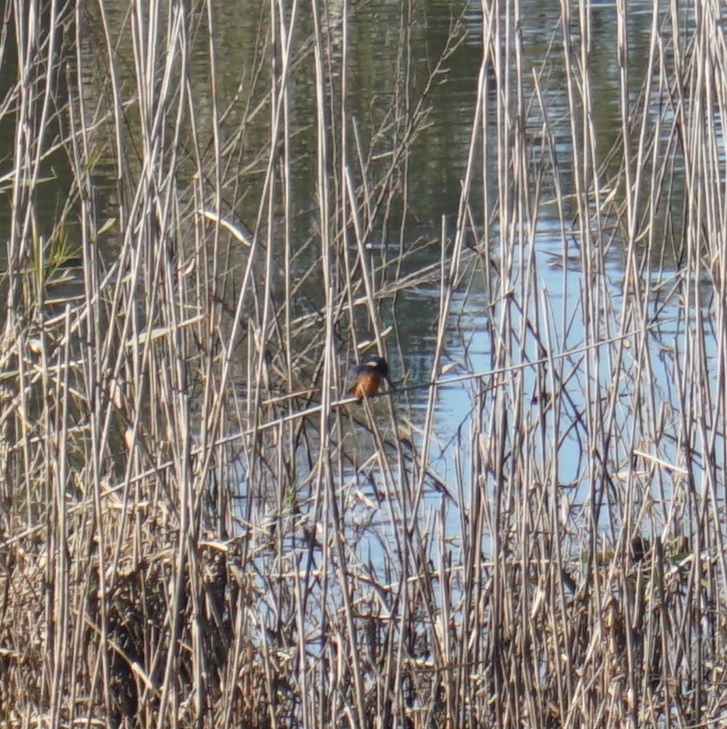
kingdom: Animalia
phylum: Chordata
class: Aves
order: Coraciiformes
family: Alcedinidae
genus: Ceyx
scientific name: Ceyx azureus
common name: Azure kingfisher
